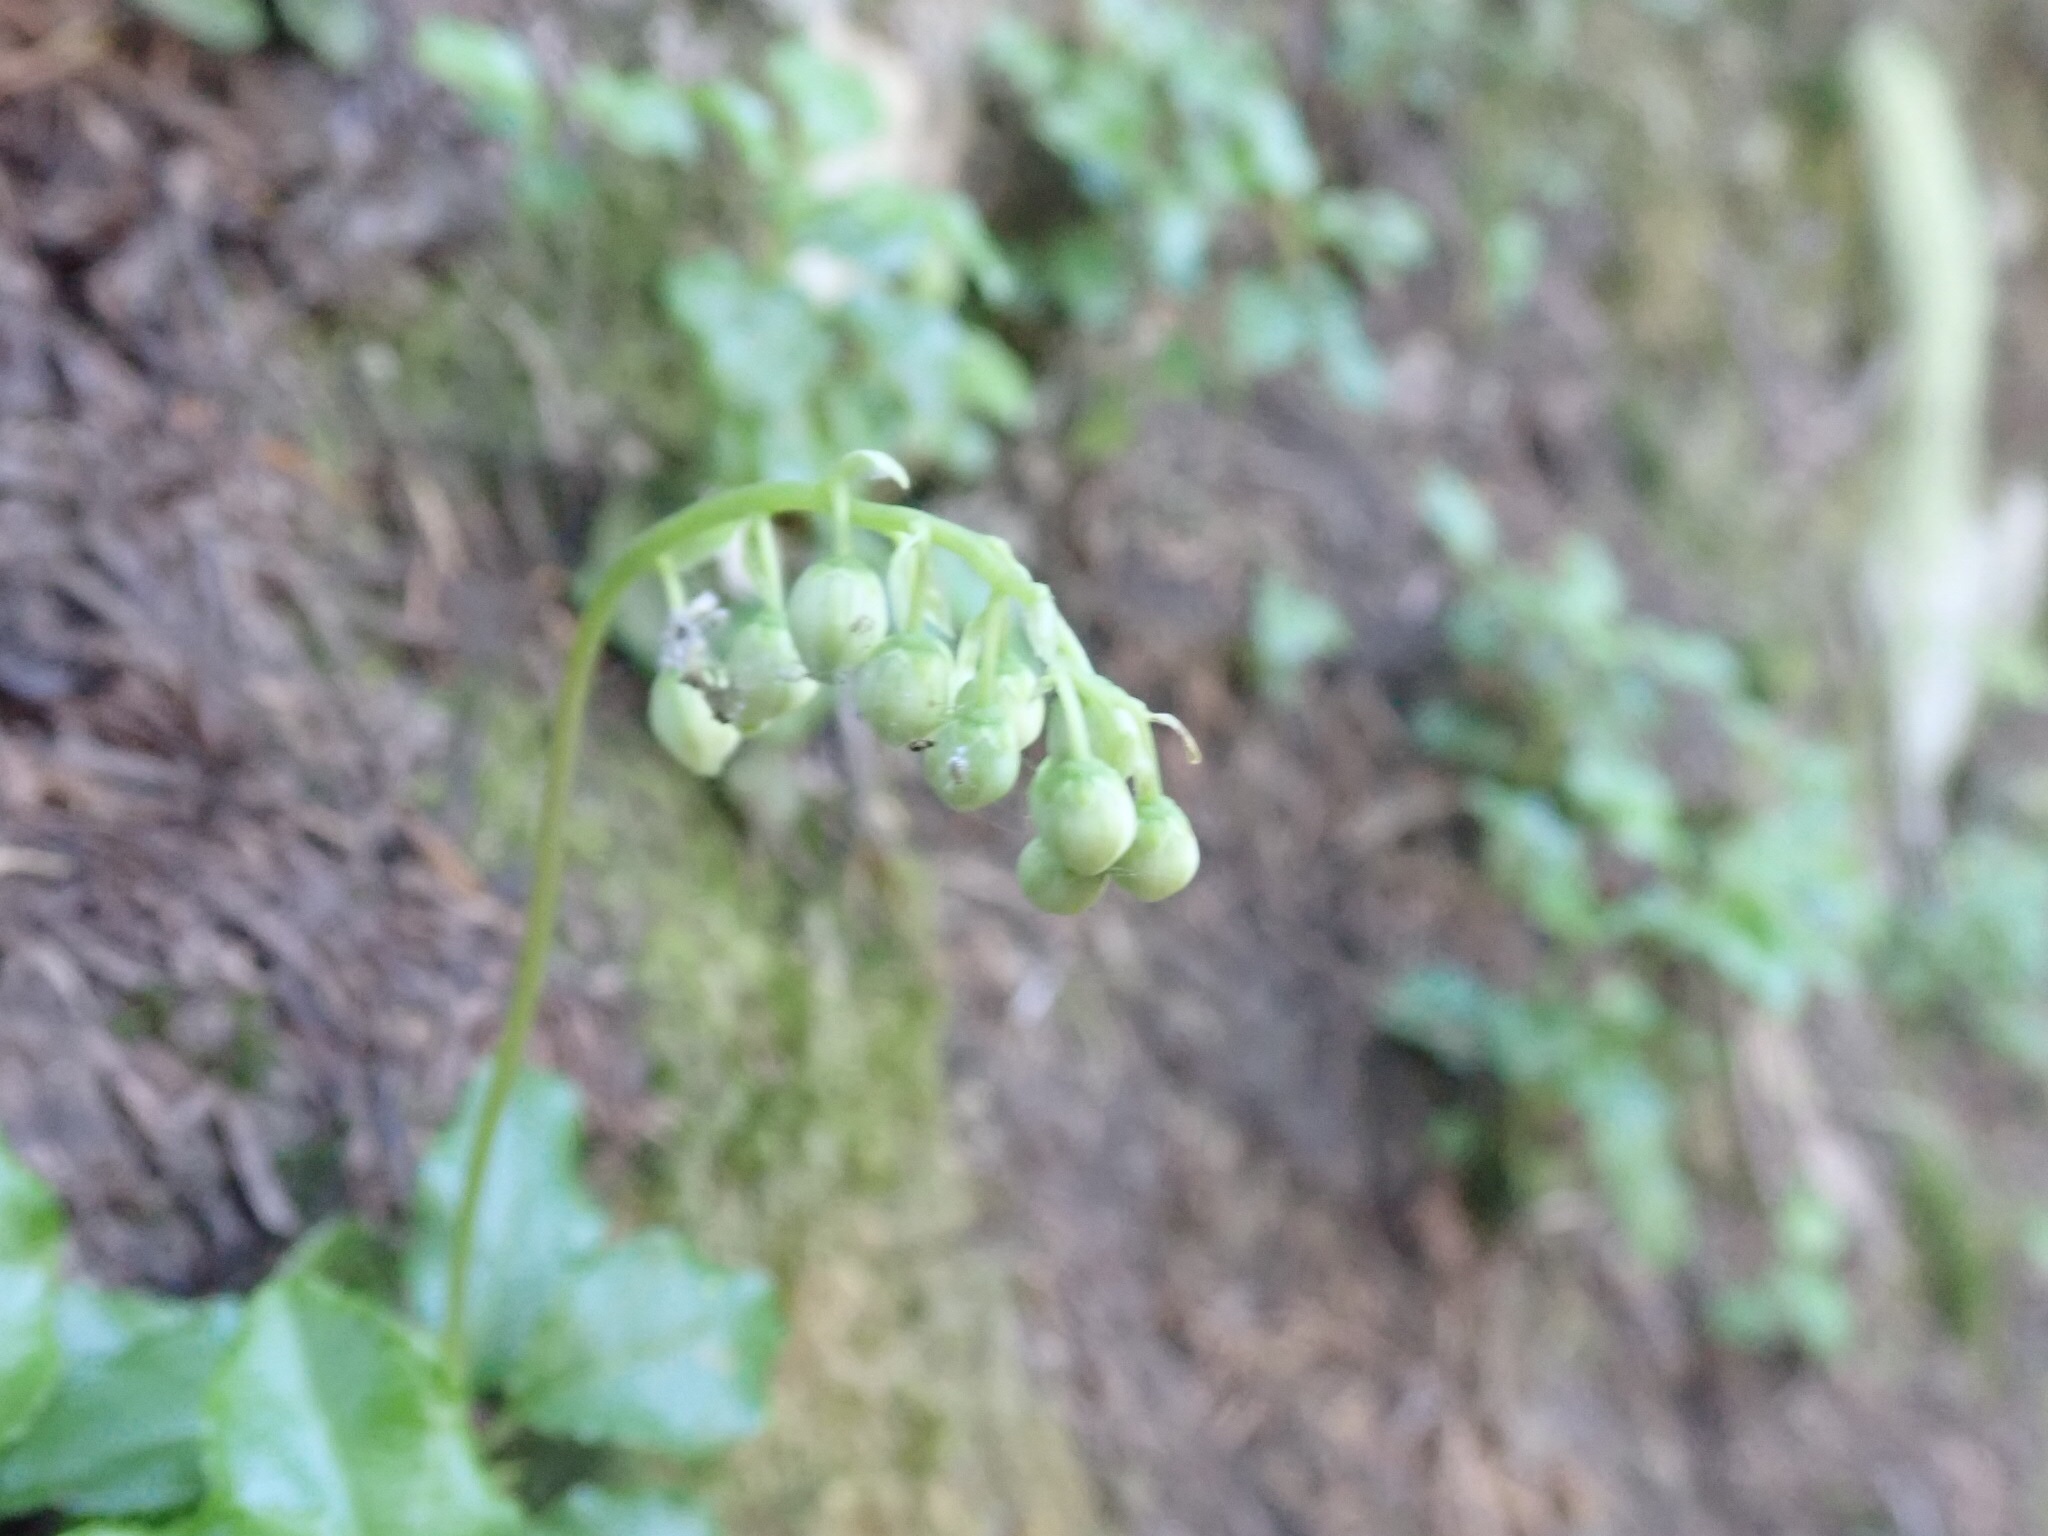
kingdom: Plantae
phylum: Tracheophyta
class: Magnoliopsida
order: Ericales
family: Ericaceae
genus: Orthilia
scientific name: Orthilia secunda
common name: One-sided orthilia
